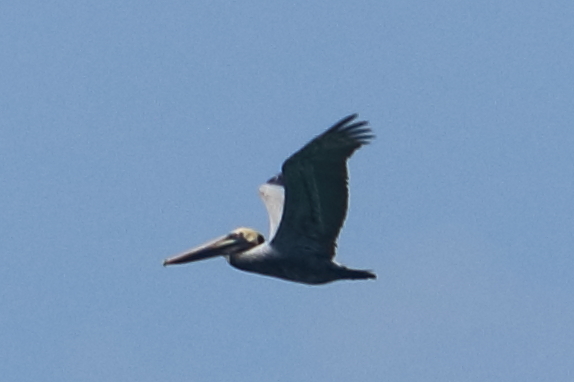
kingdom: Animalia
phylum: Chordata
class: Aves
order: Pelecaniformes
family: Pelecanidae
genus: Pelecanus
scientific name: Pelecanus occidentalis
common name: Brown pelican
